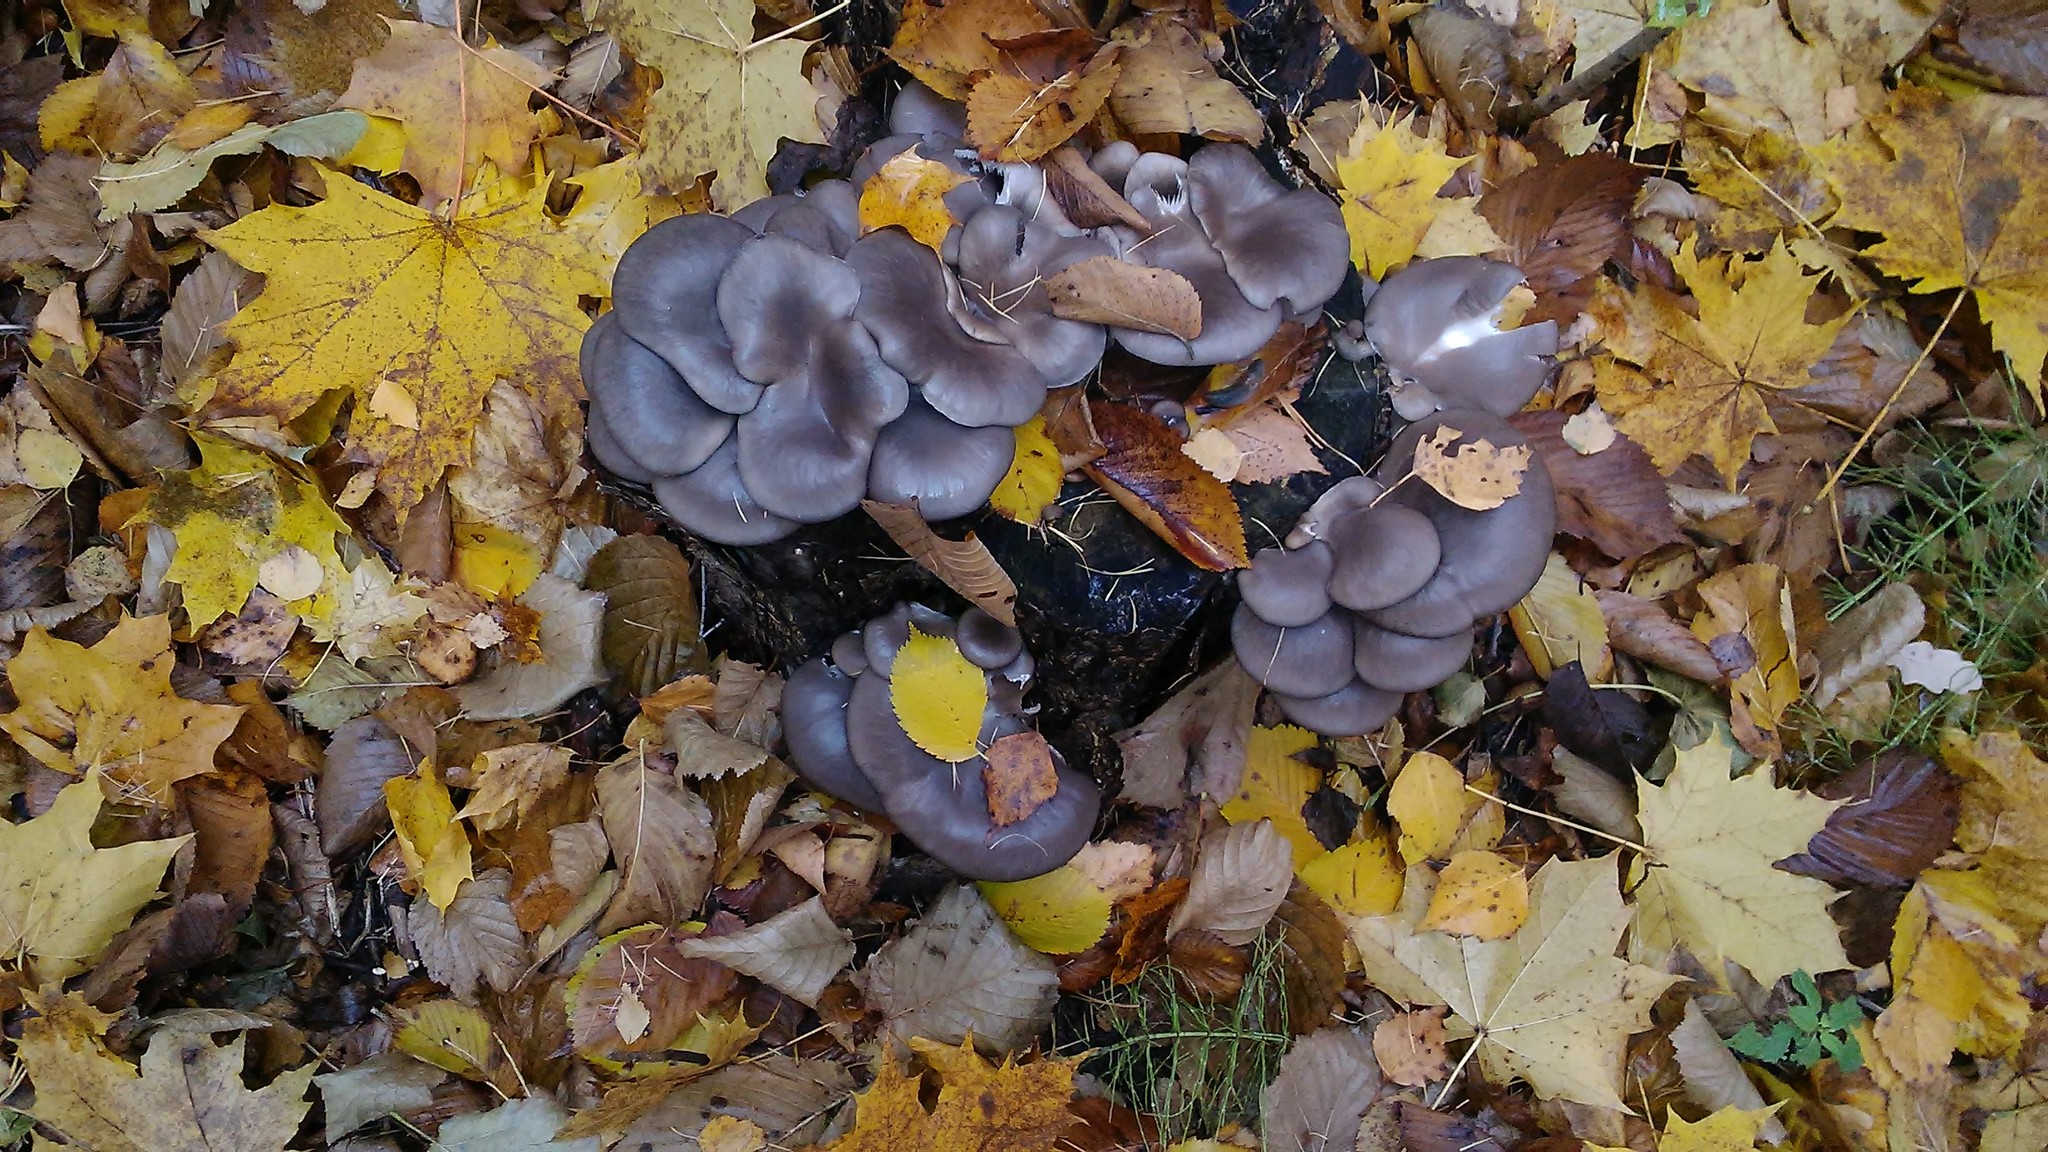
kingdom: Fungi
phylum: Basidiomycota
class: Agaricomycetes
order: Agaricales
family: Pleurotaceae
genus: Pleurotus
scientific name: Pleurotus ostreatus
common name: Oyster mushroom
